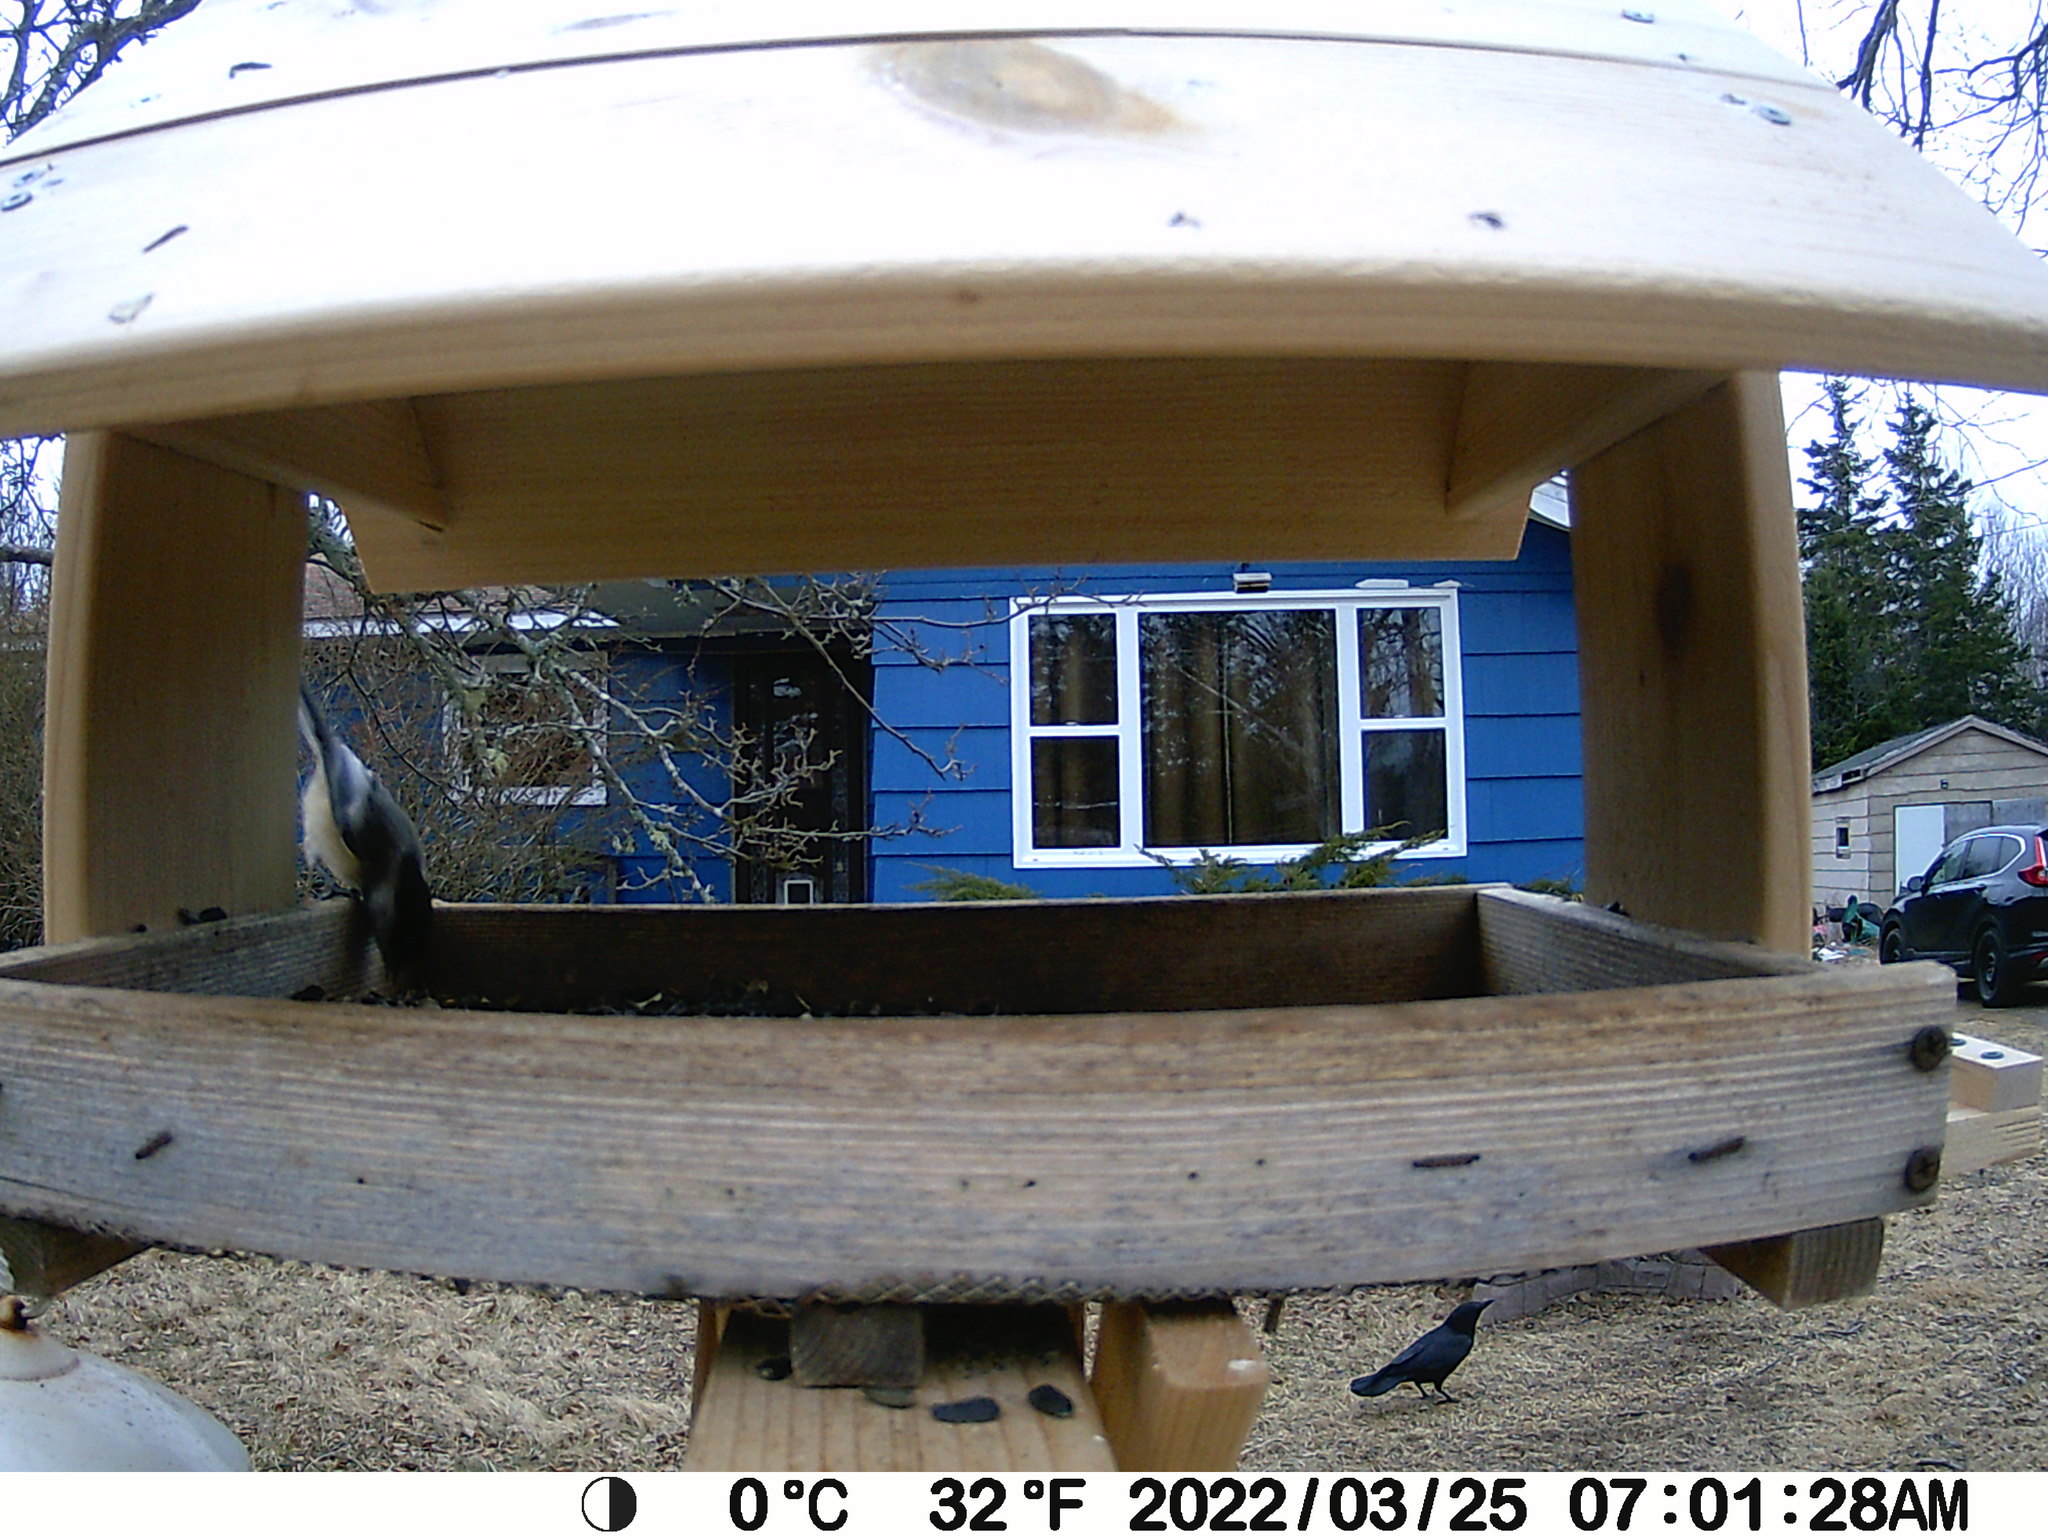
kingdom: Animalia
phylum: Chordata
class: Aves
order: Passeriformes
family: Corvidae
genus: Corvus
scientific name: Corvus brachyrhynchos
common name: American crow
